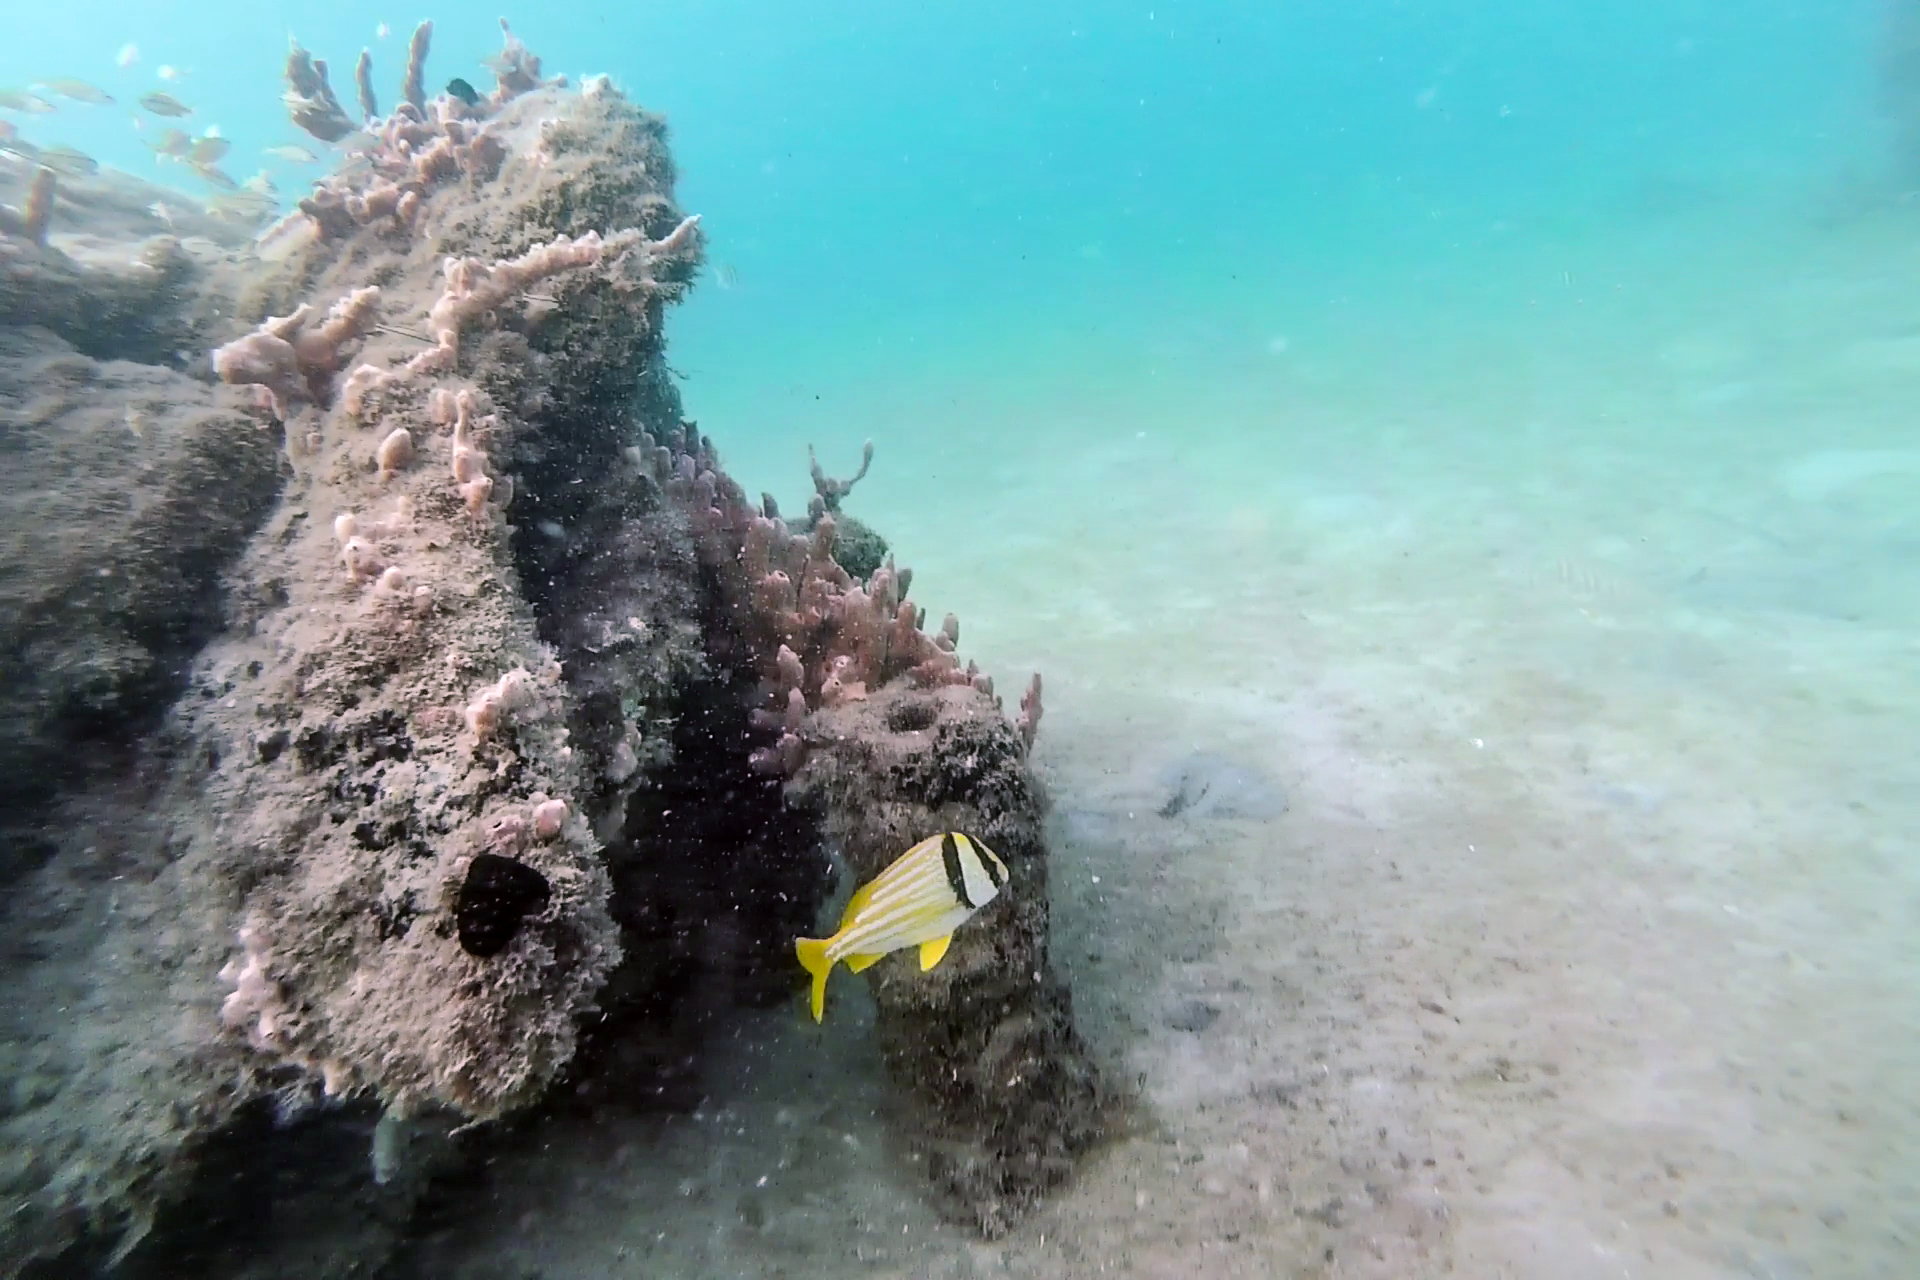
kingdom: Animalia
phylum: Chordata
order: Perciformes
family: Haemulidae
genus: Anisotremus
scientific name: Anisotremus virginicus
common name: Porkfish
